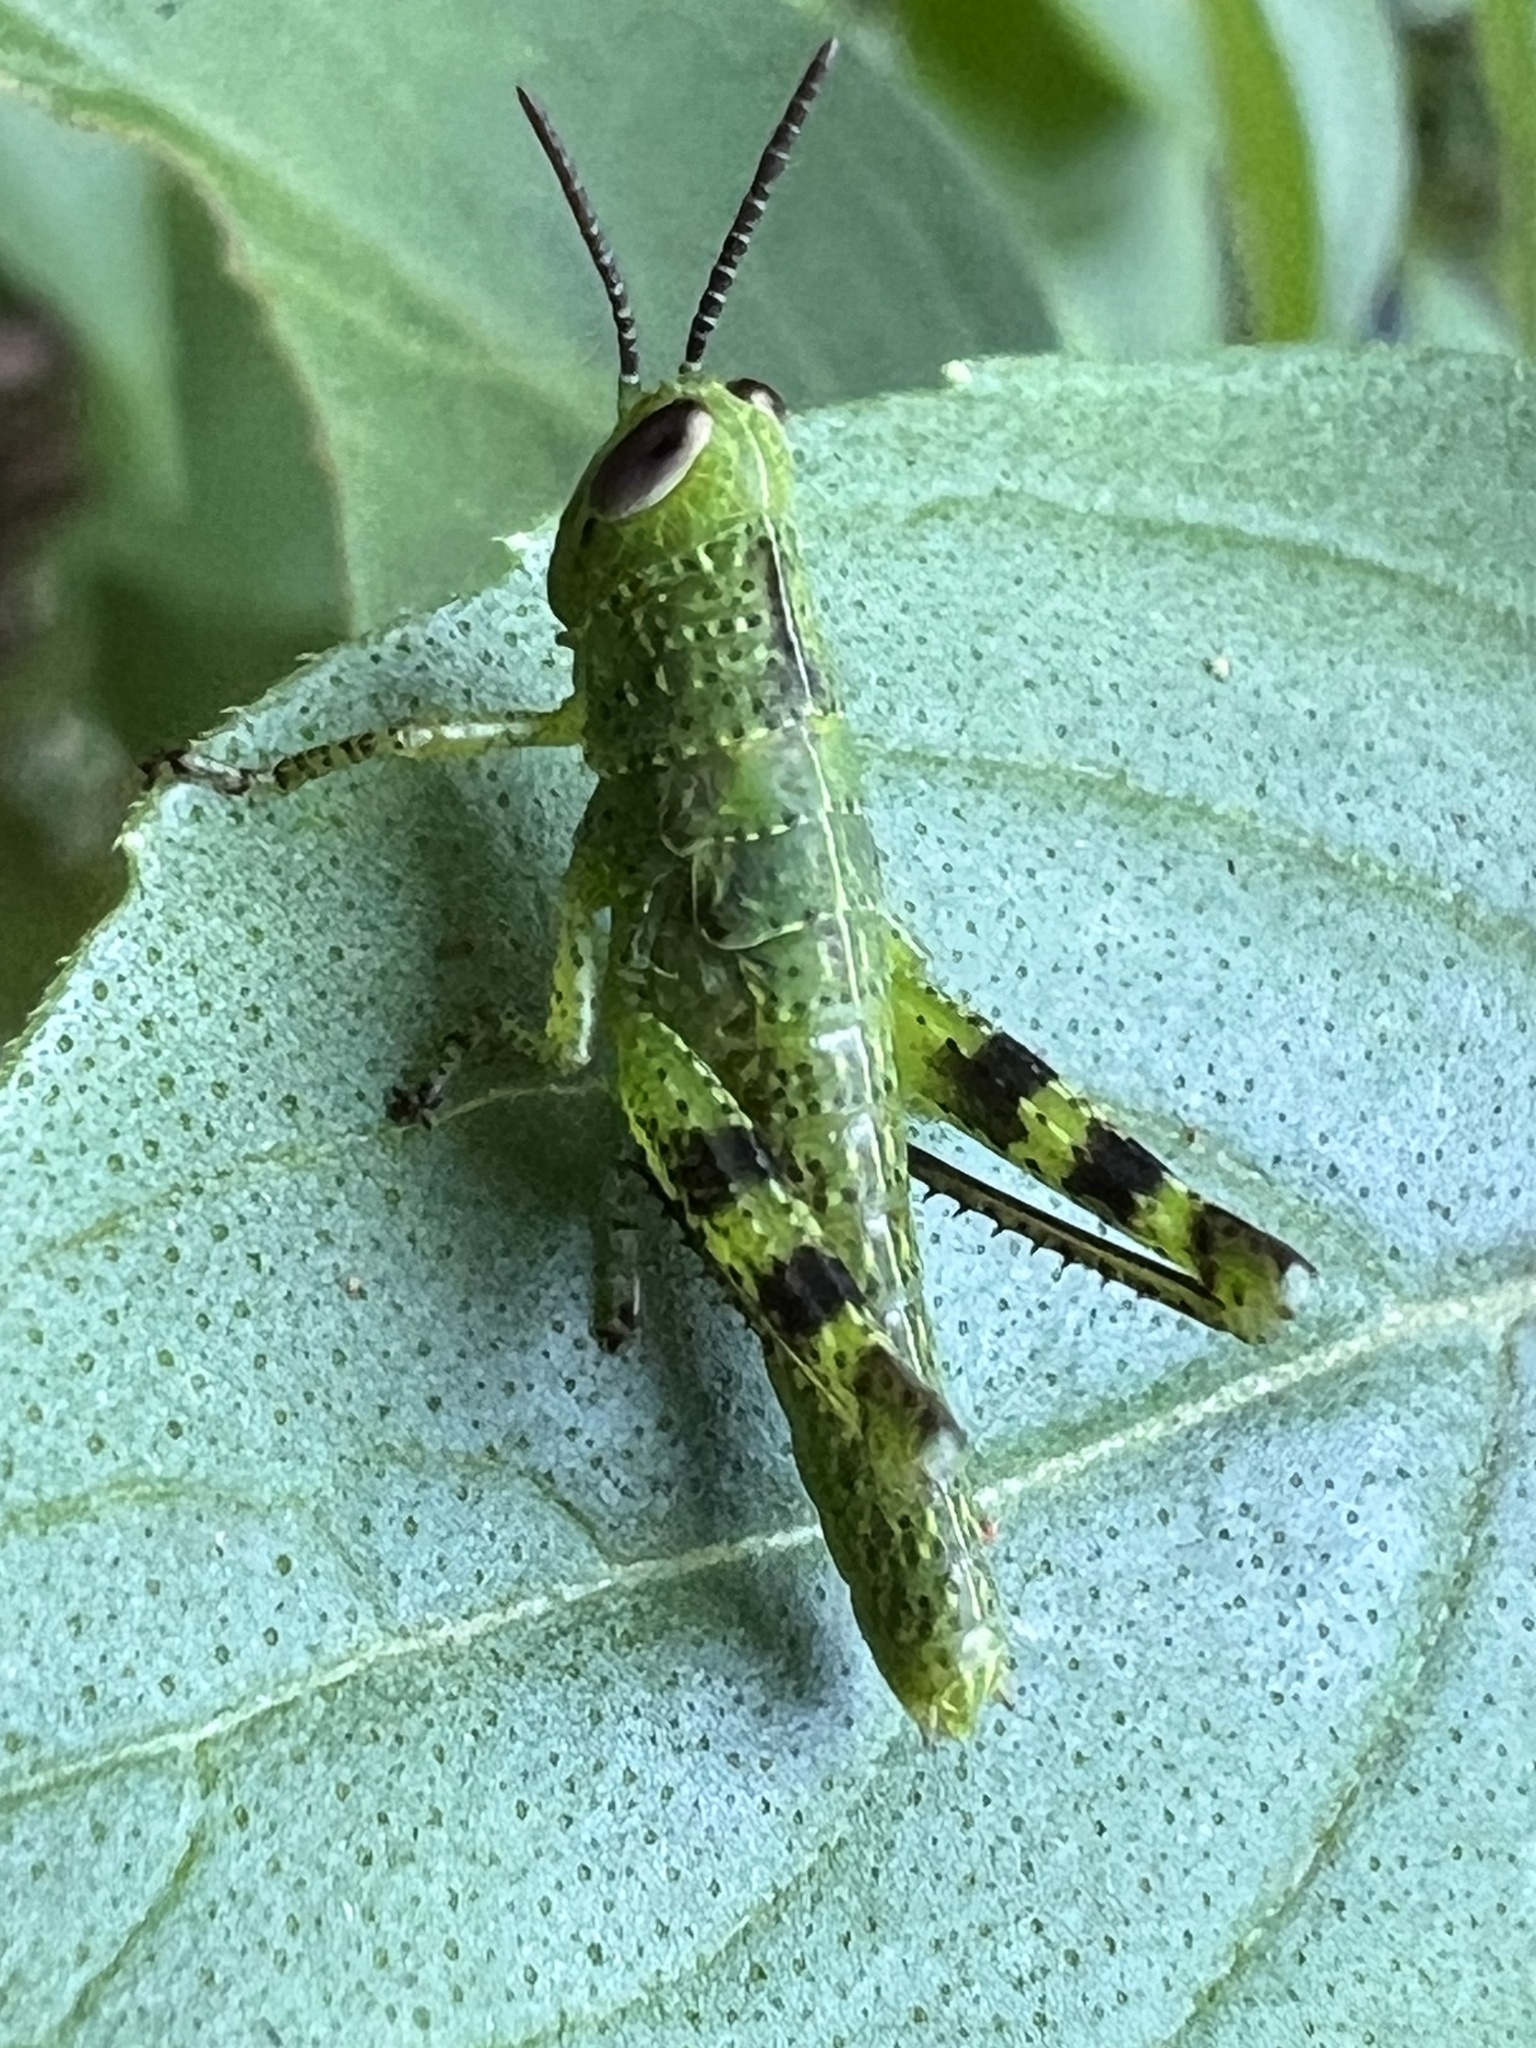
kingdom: Animalia
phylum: Arthropoda
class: Insecta
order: Orthoptera
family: Acrididae
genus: Valanga
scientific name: Valanga irregularis
